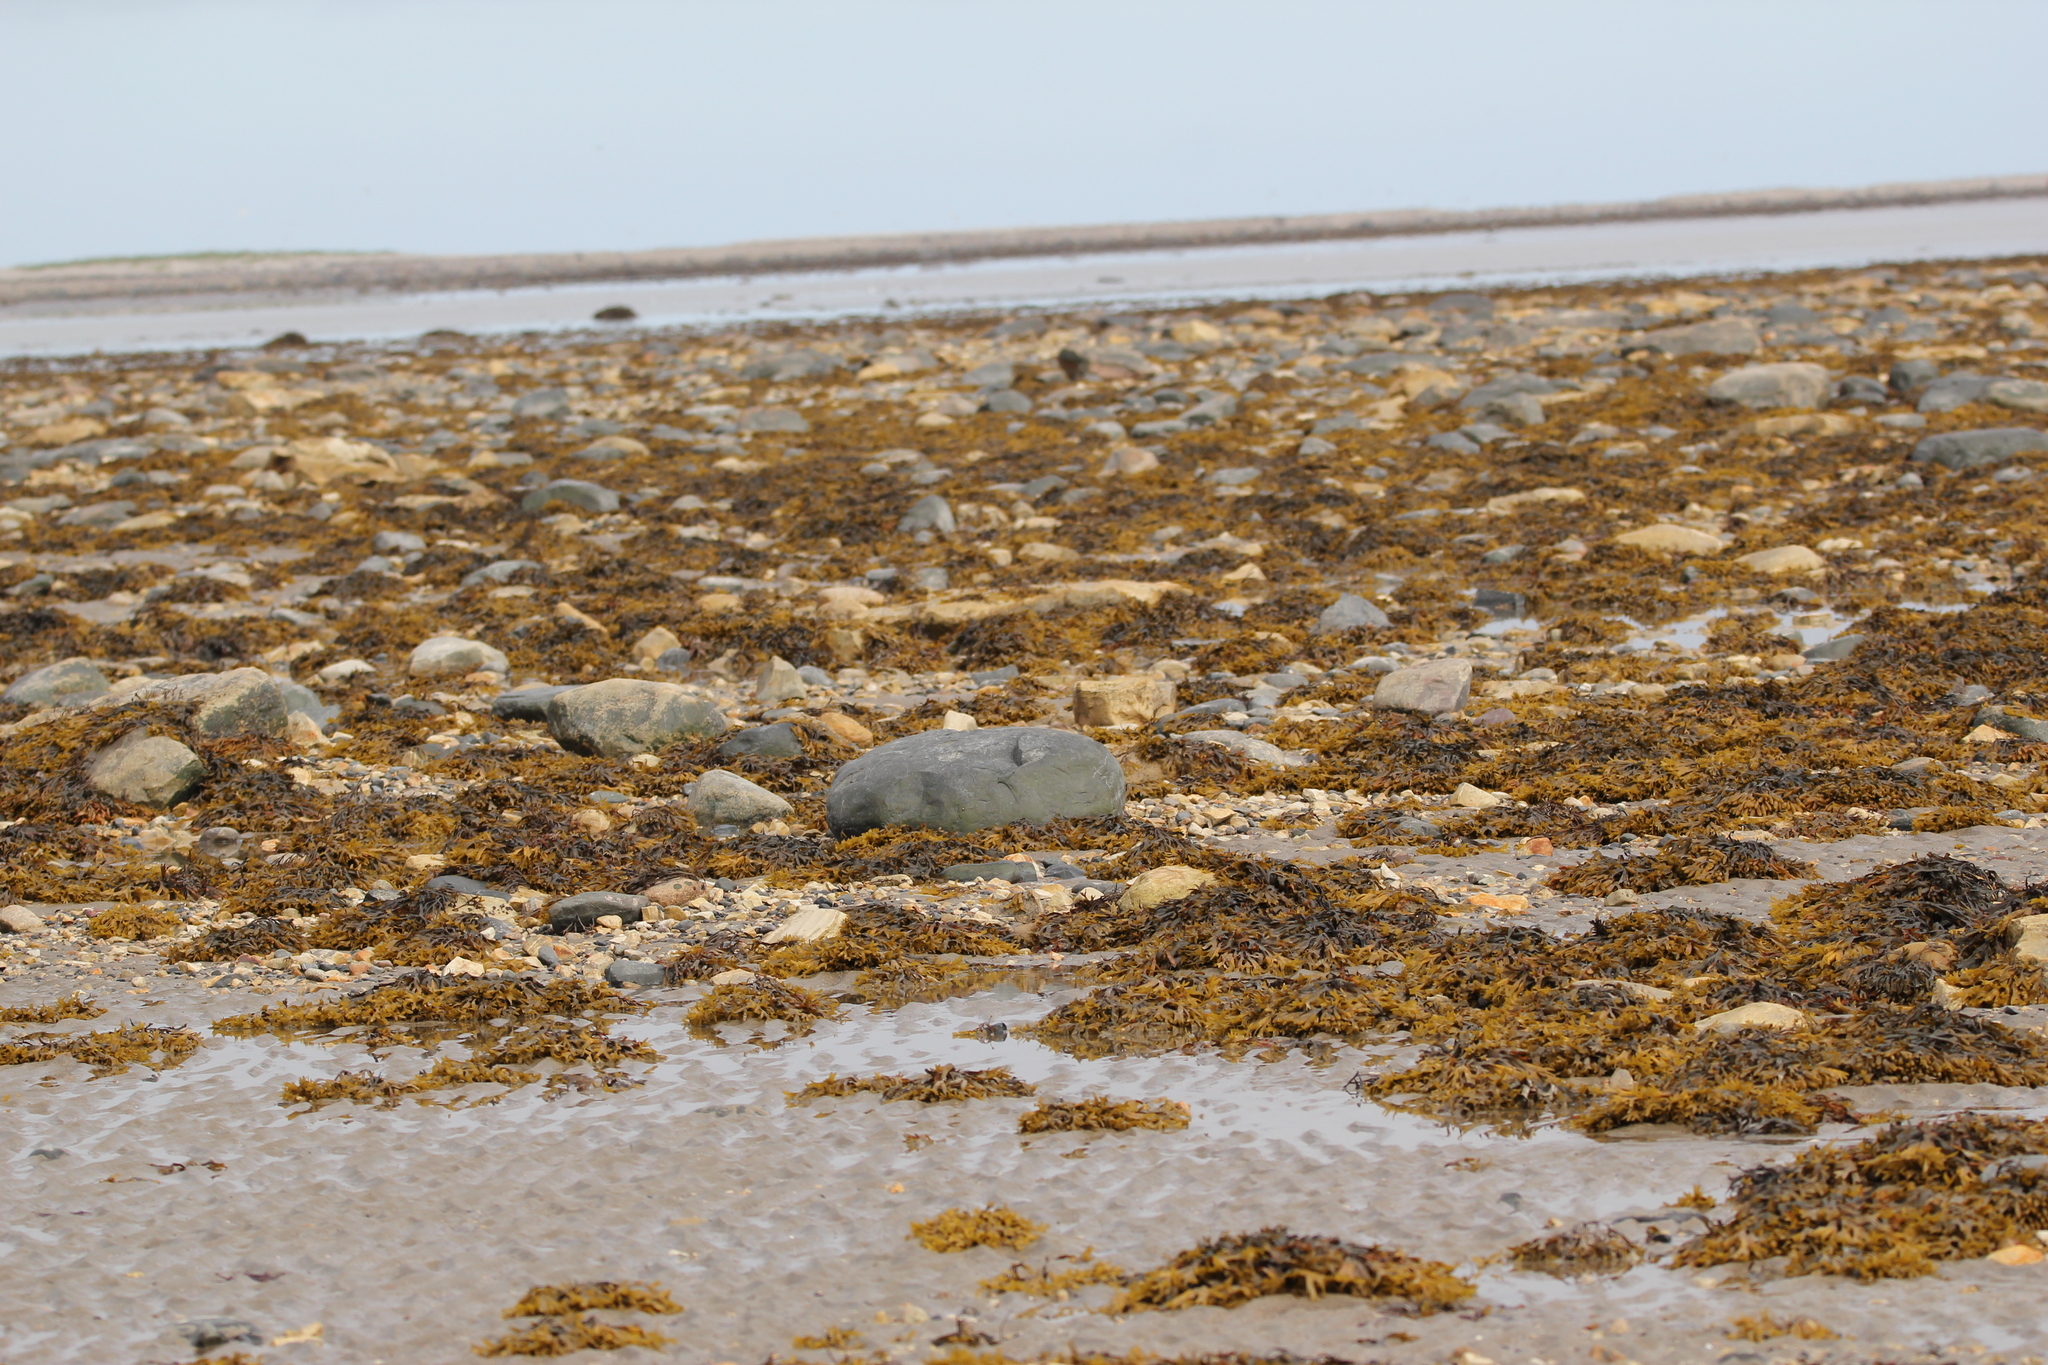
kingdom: Chromista
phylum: Ochrophyta
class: Phaeophyceae
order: Fucales
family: Fucaceae
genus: Fucus
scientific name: Fucus distichus
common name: Rockweed
